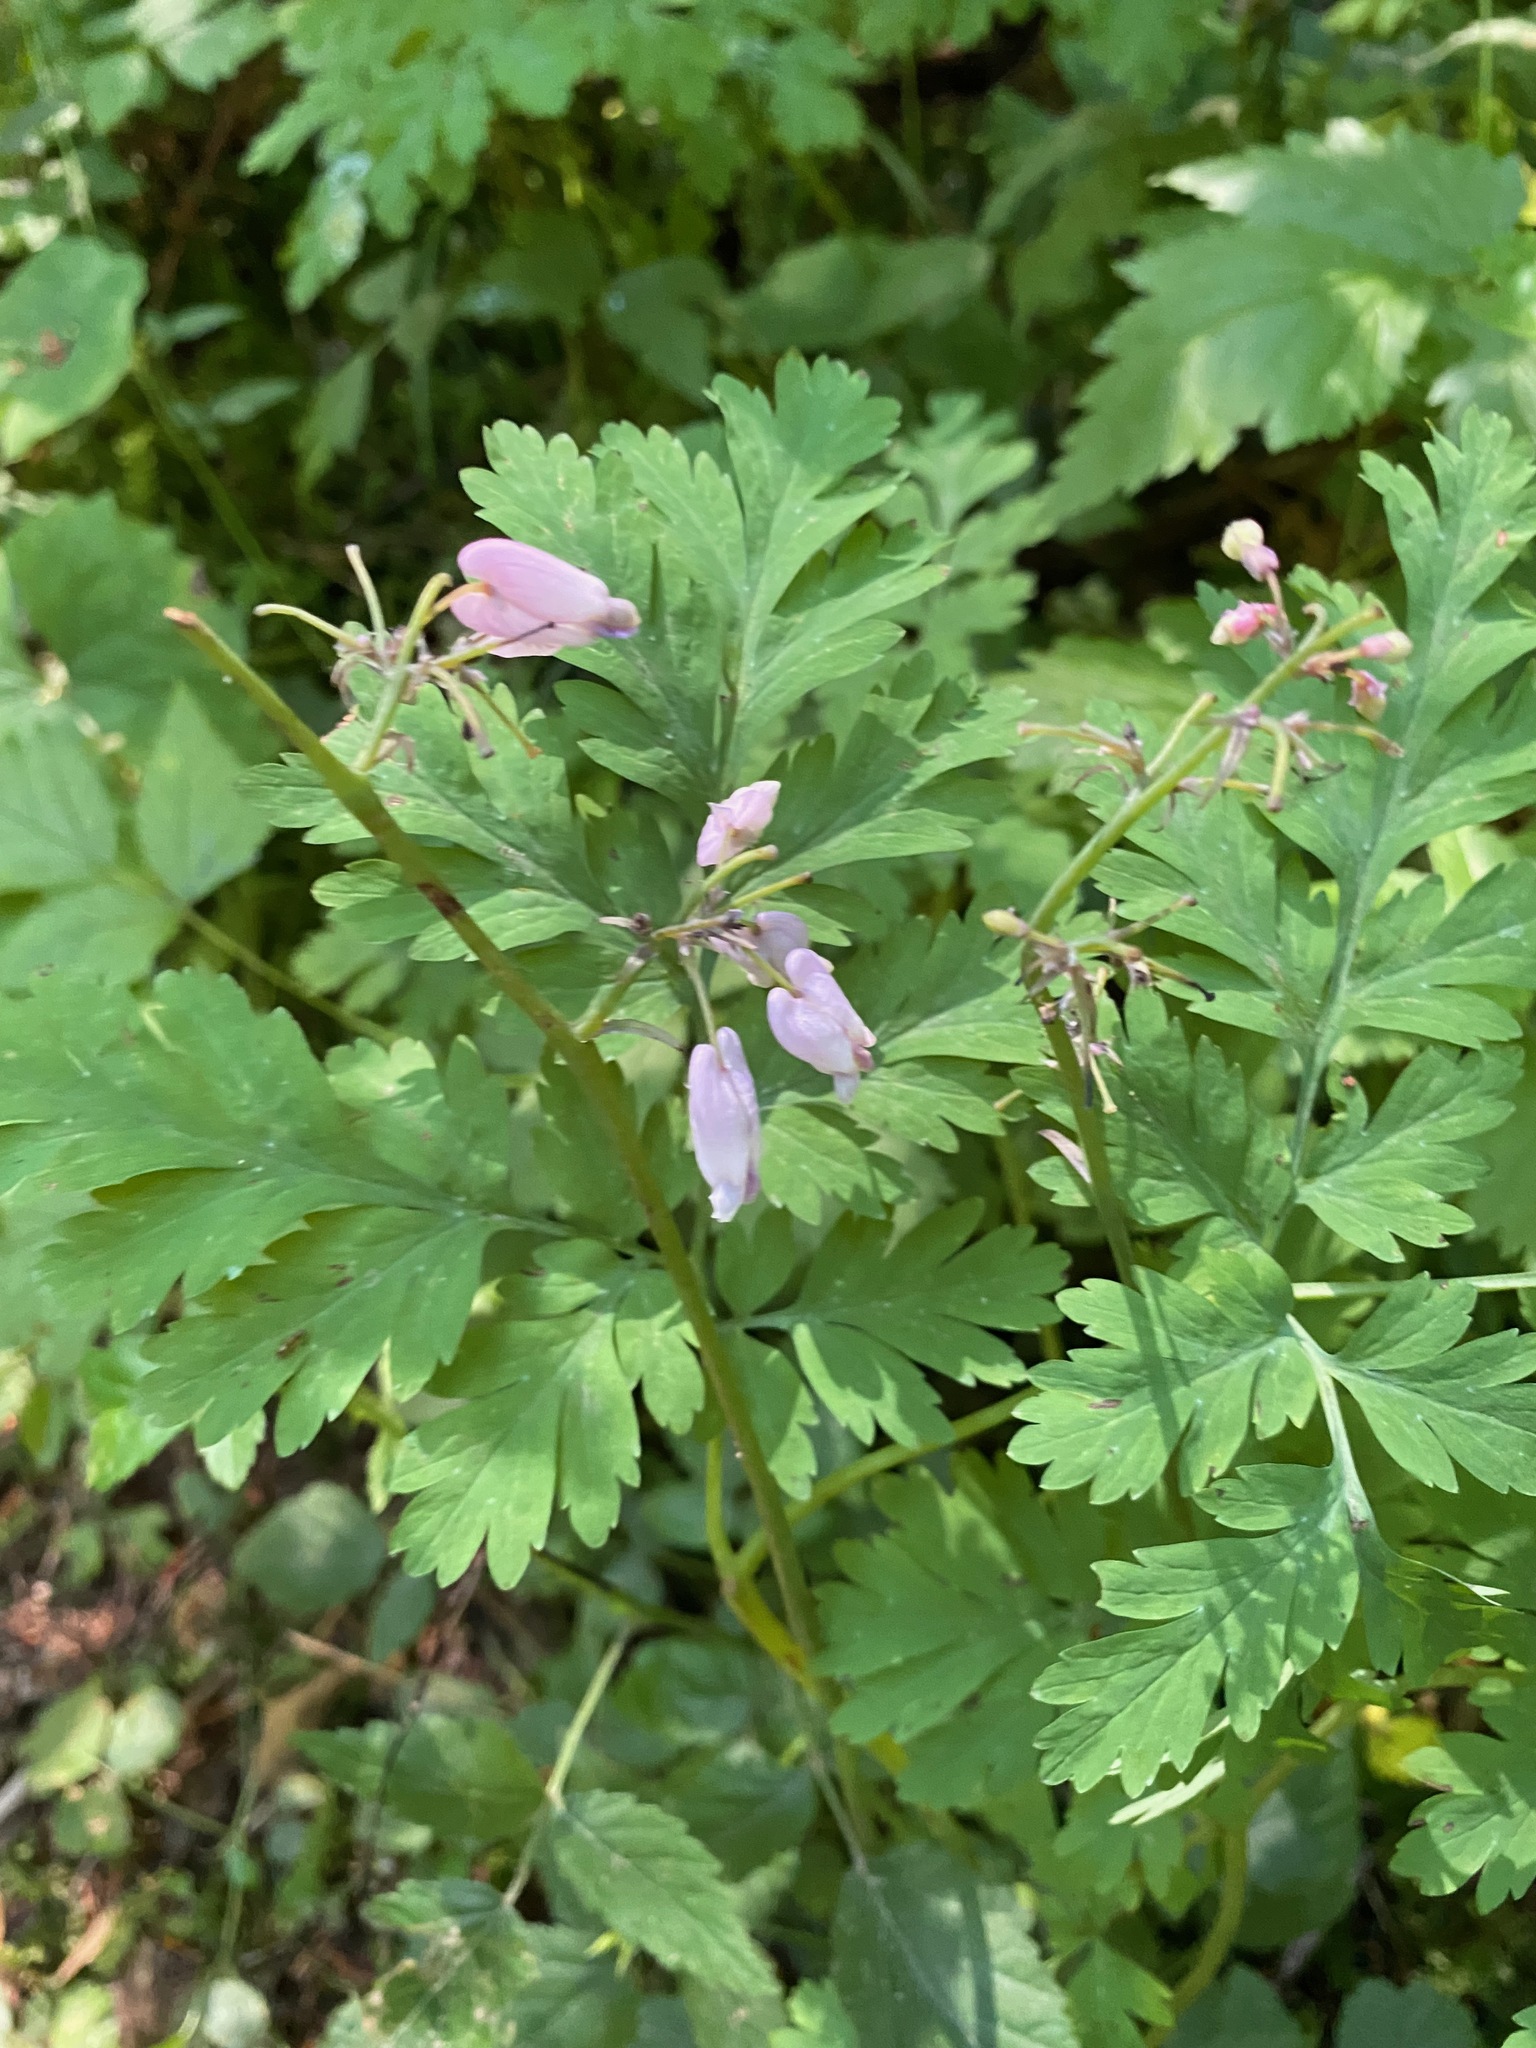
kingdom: Plantae
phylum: Tracheophyta
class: Magnoliopsida
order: Ranunculales
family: Papaveraceae
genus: Dicentra
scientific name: Dicentra formosa
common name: Bleeding-heart
